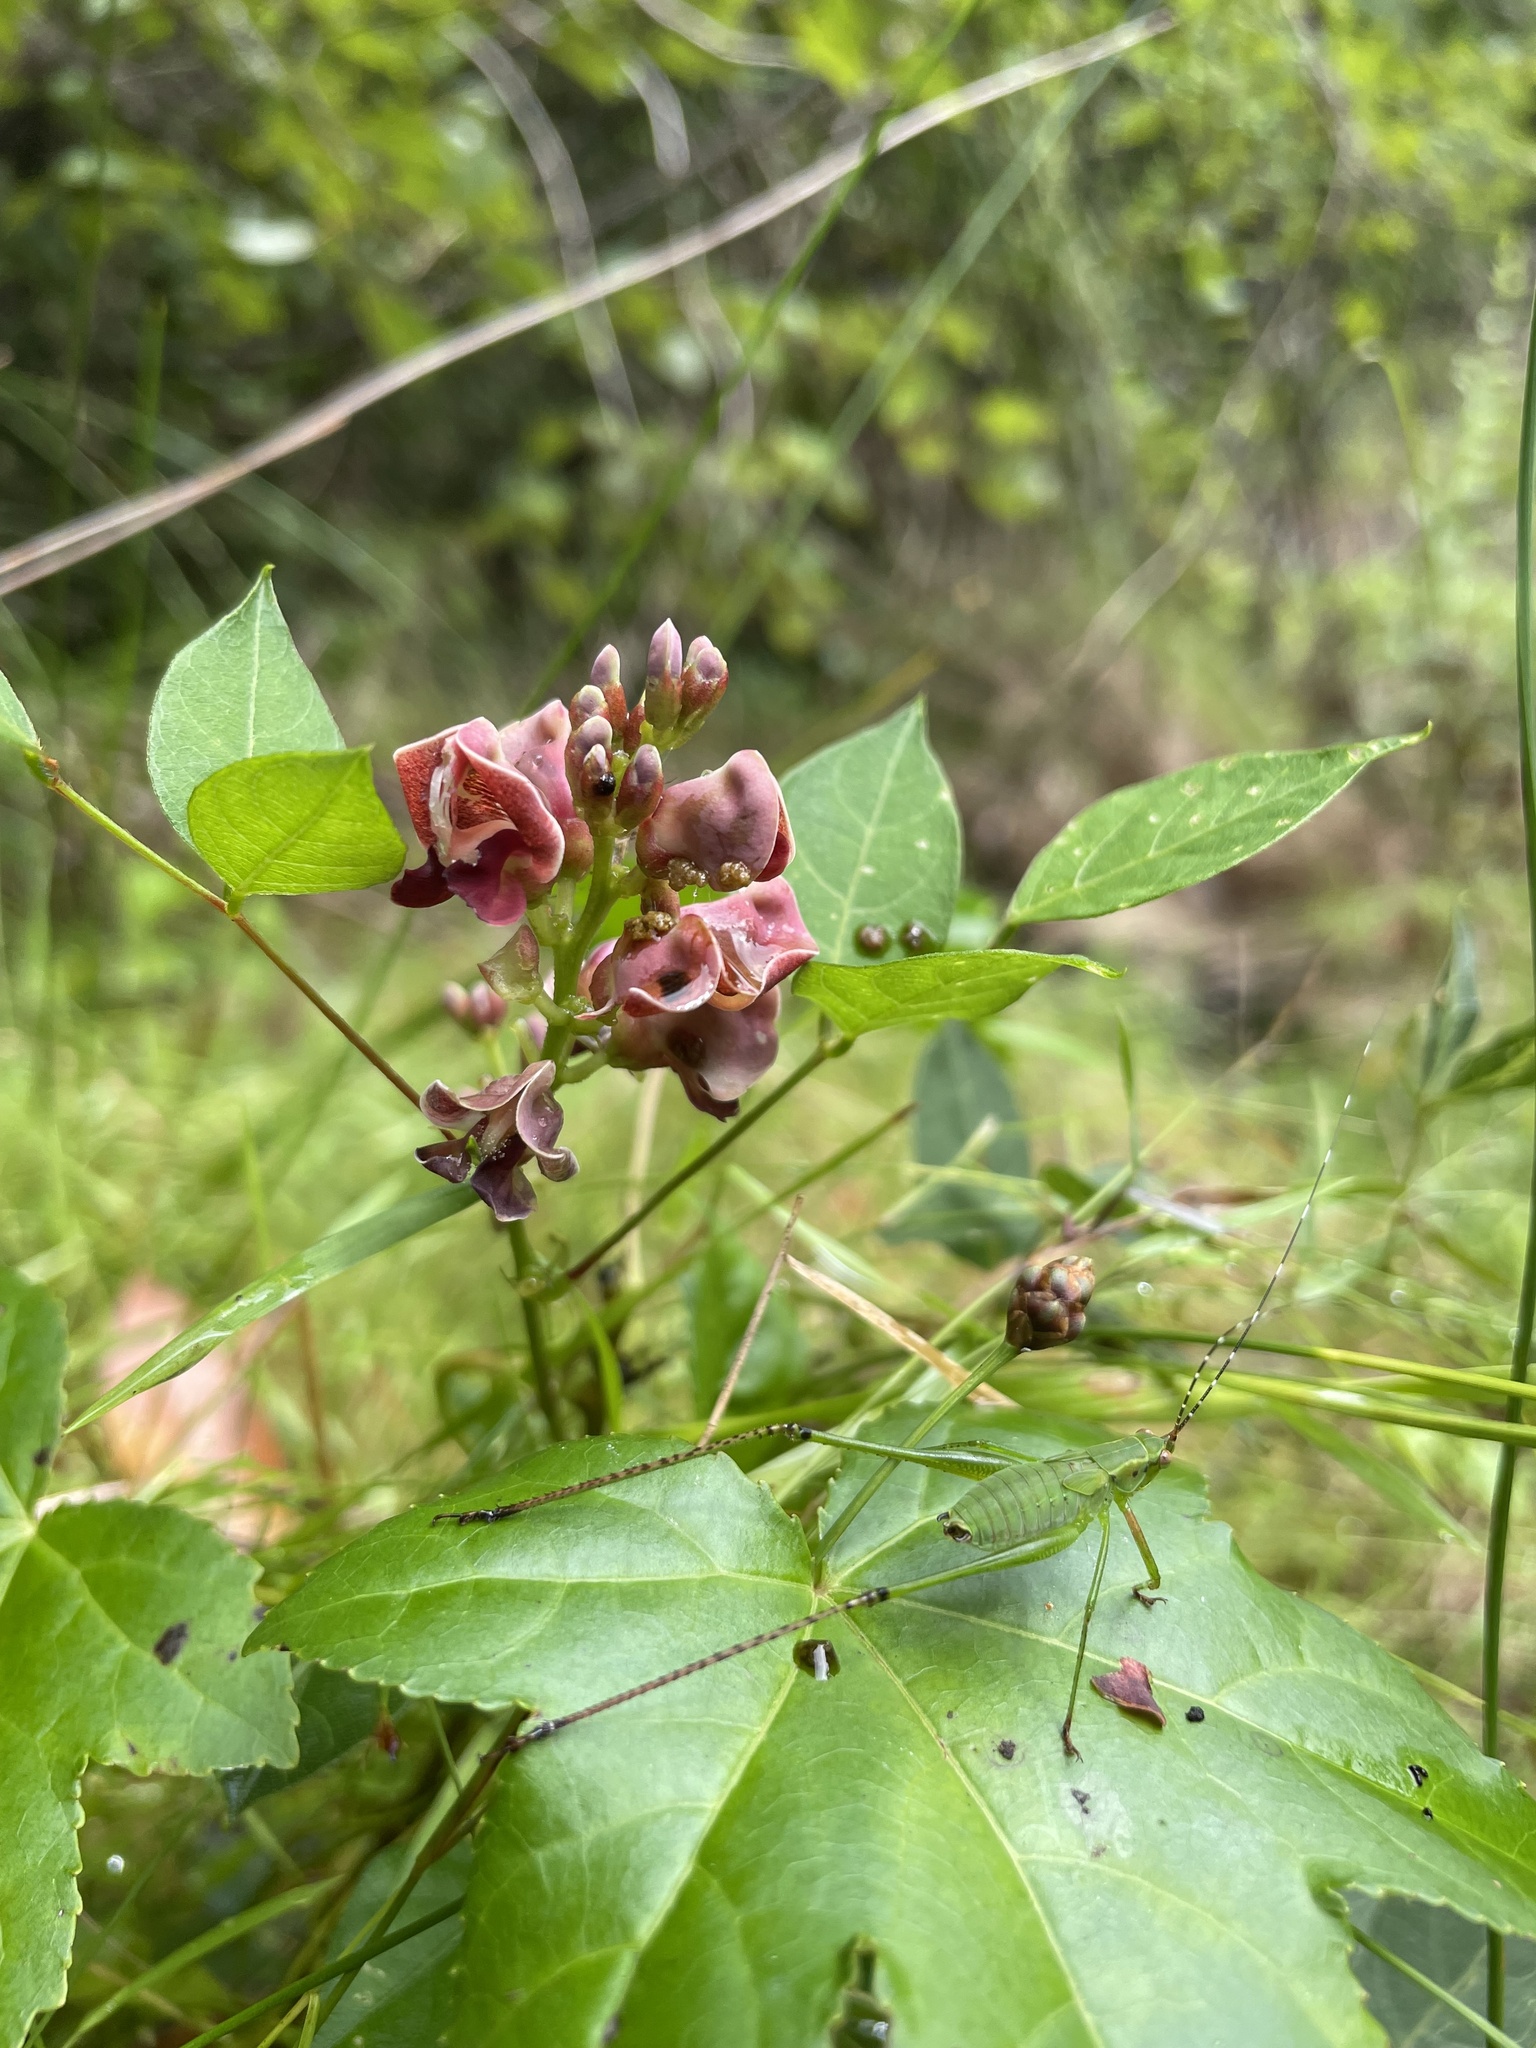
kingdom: Plantae
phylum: Tracheophyta
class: Magnoliopsida
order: Fabales
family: Fabaceae
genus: Apios
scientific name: Apios americana
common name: American potato-bean
